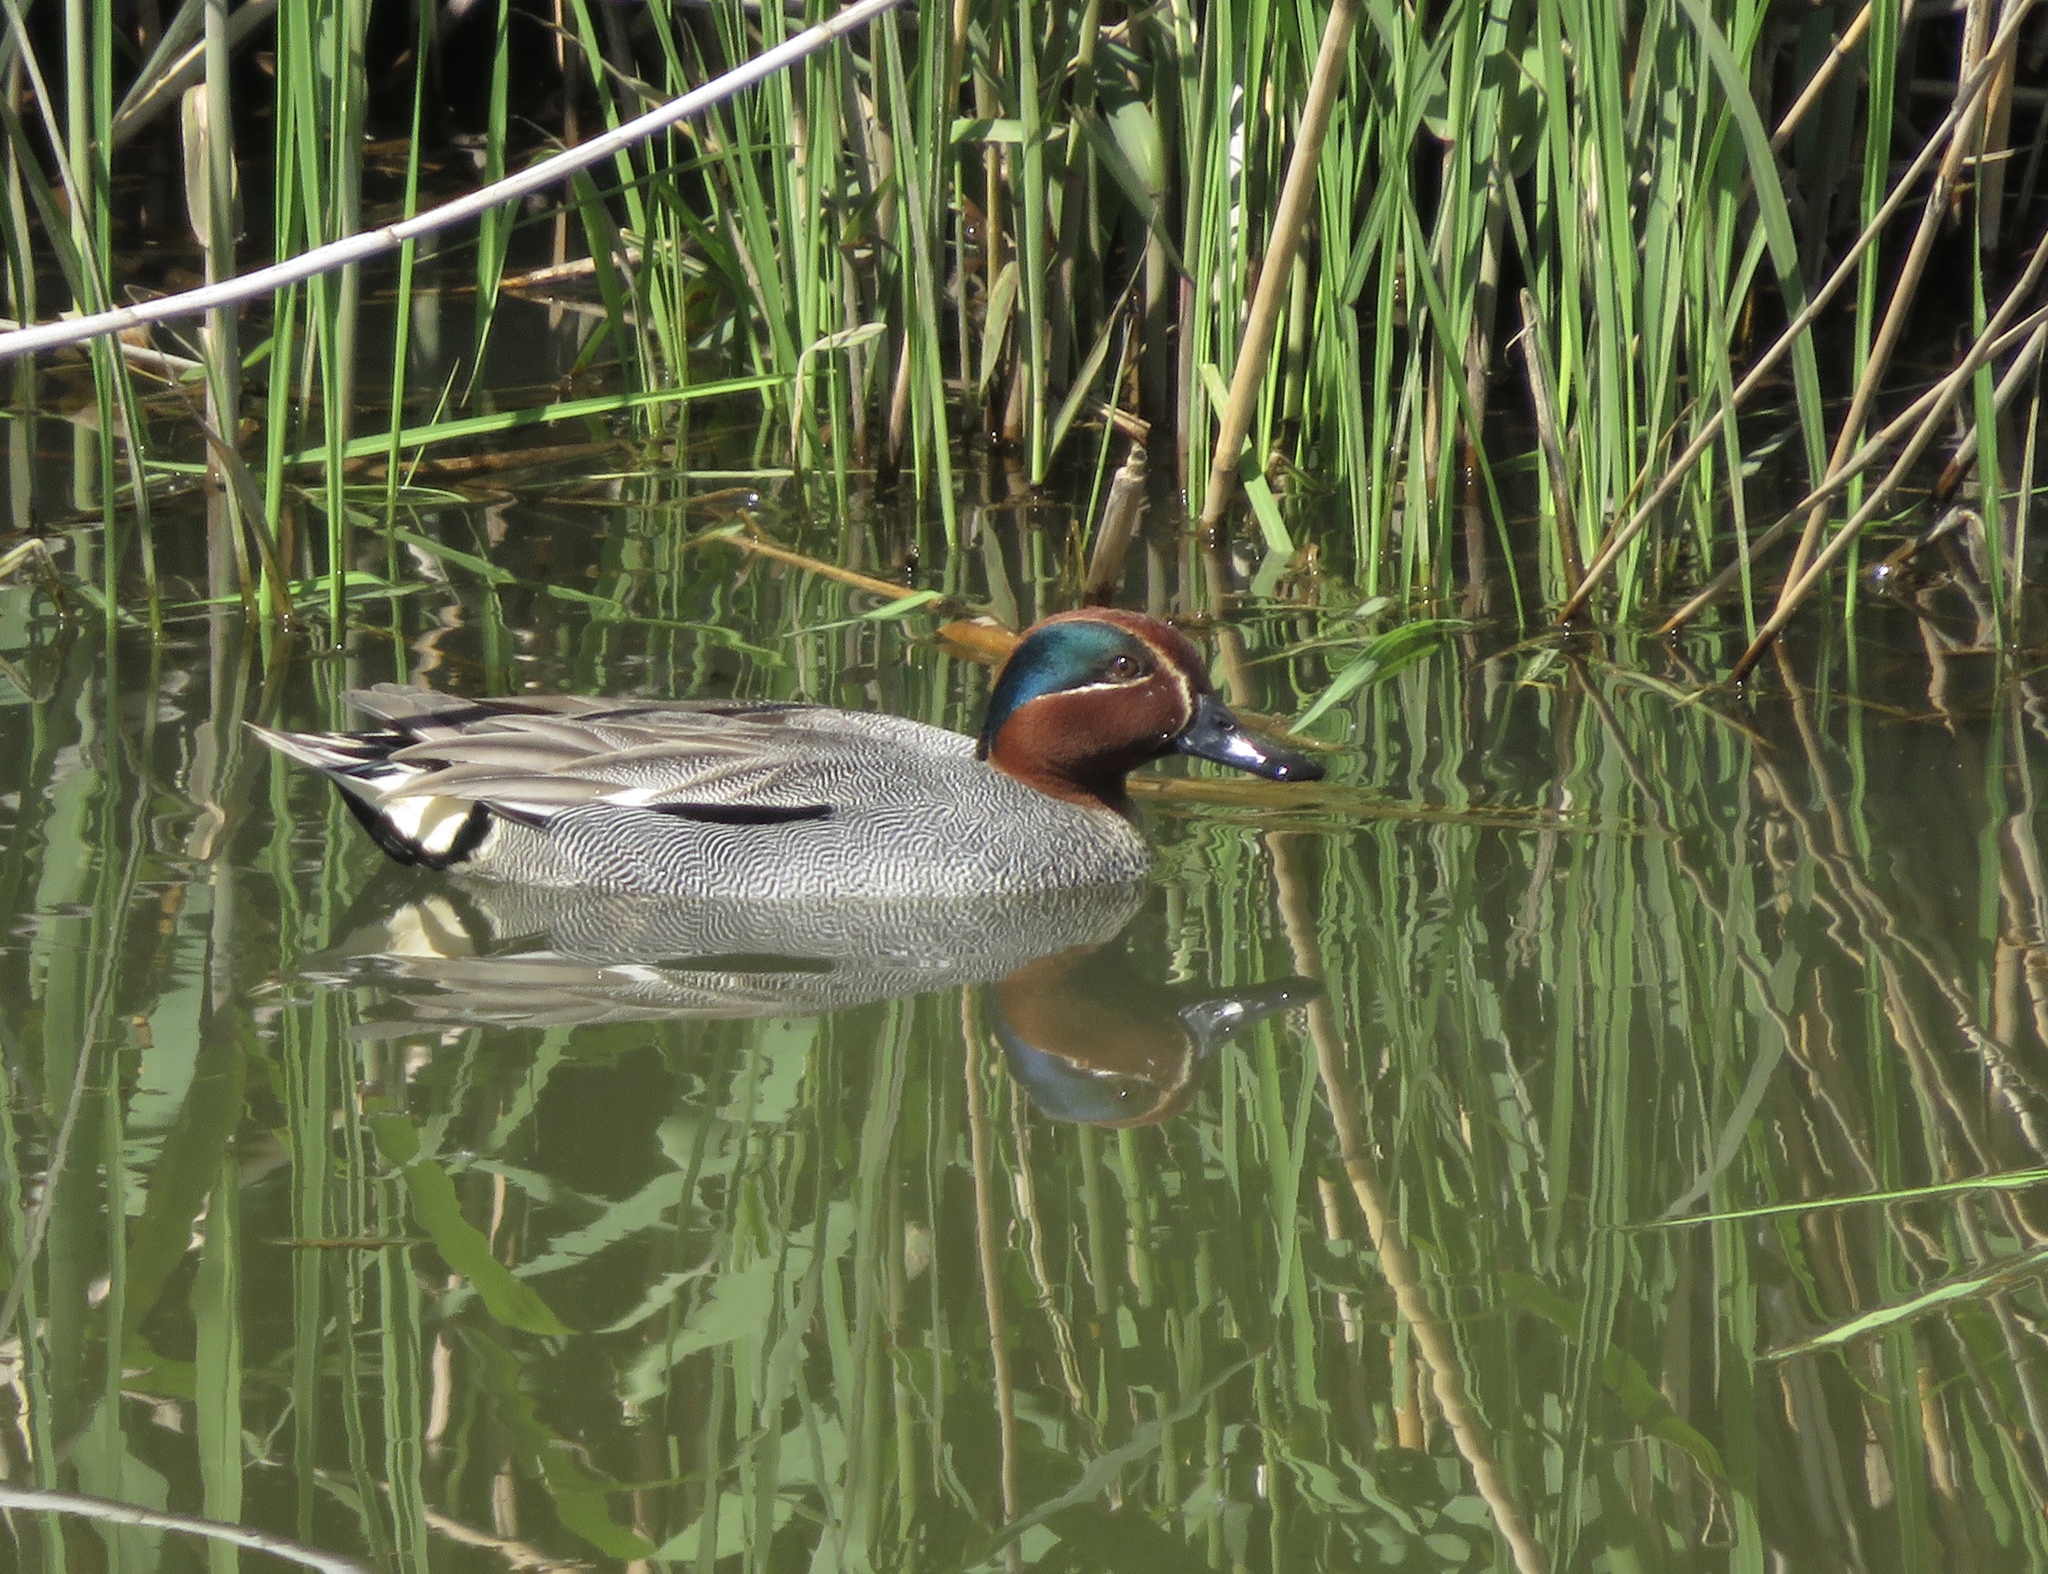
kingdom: Animalia
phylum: Chordata
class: Aves
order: Anseriformes
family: Anatidae
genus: Anas
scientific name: Anas crecca
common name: Eurasian teal
